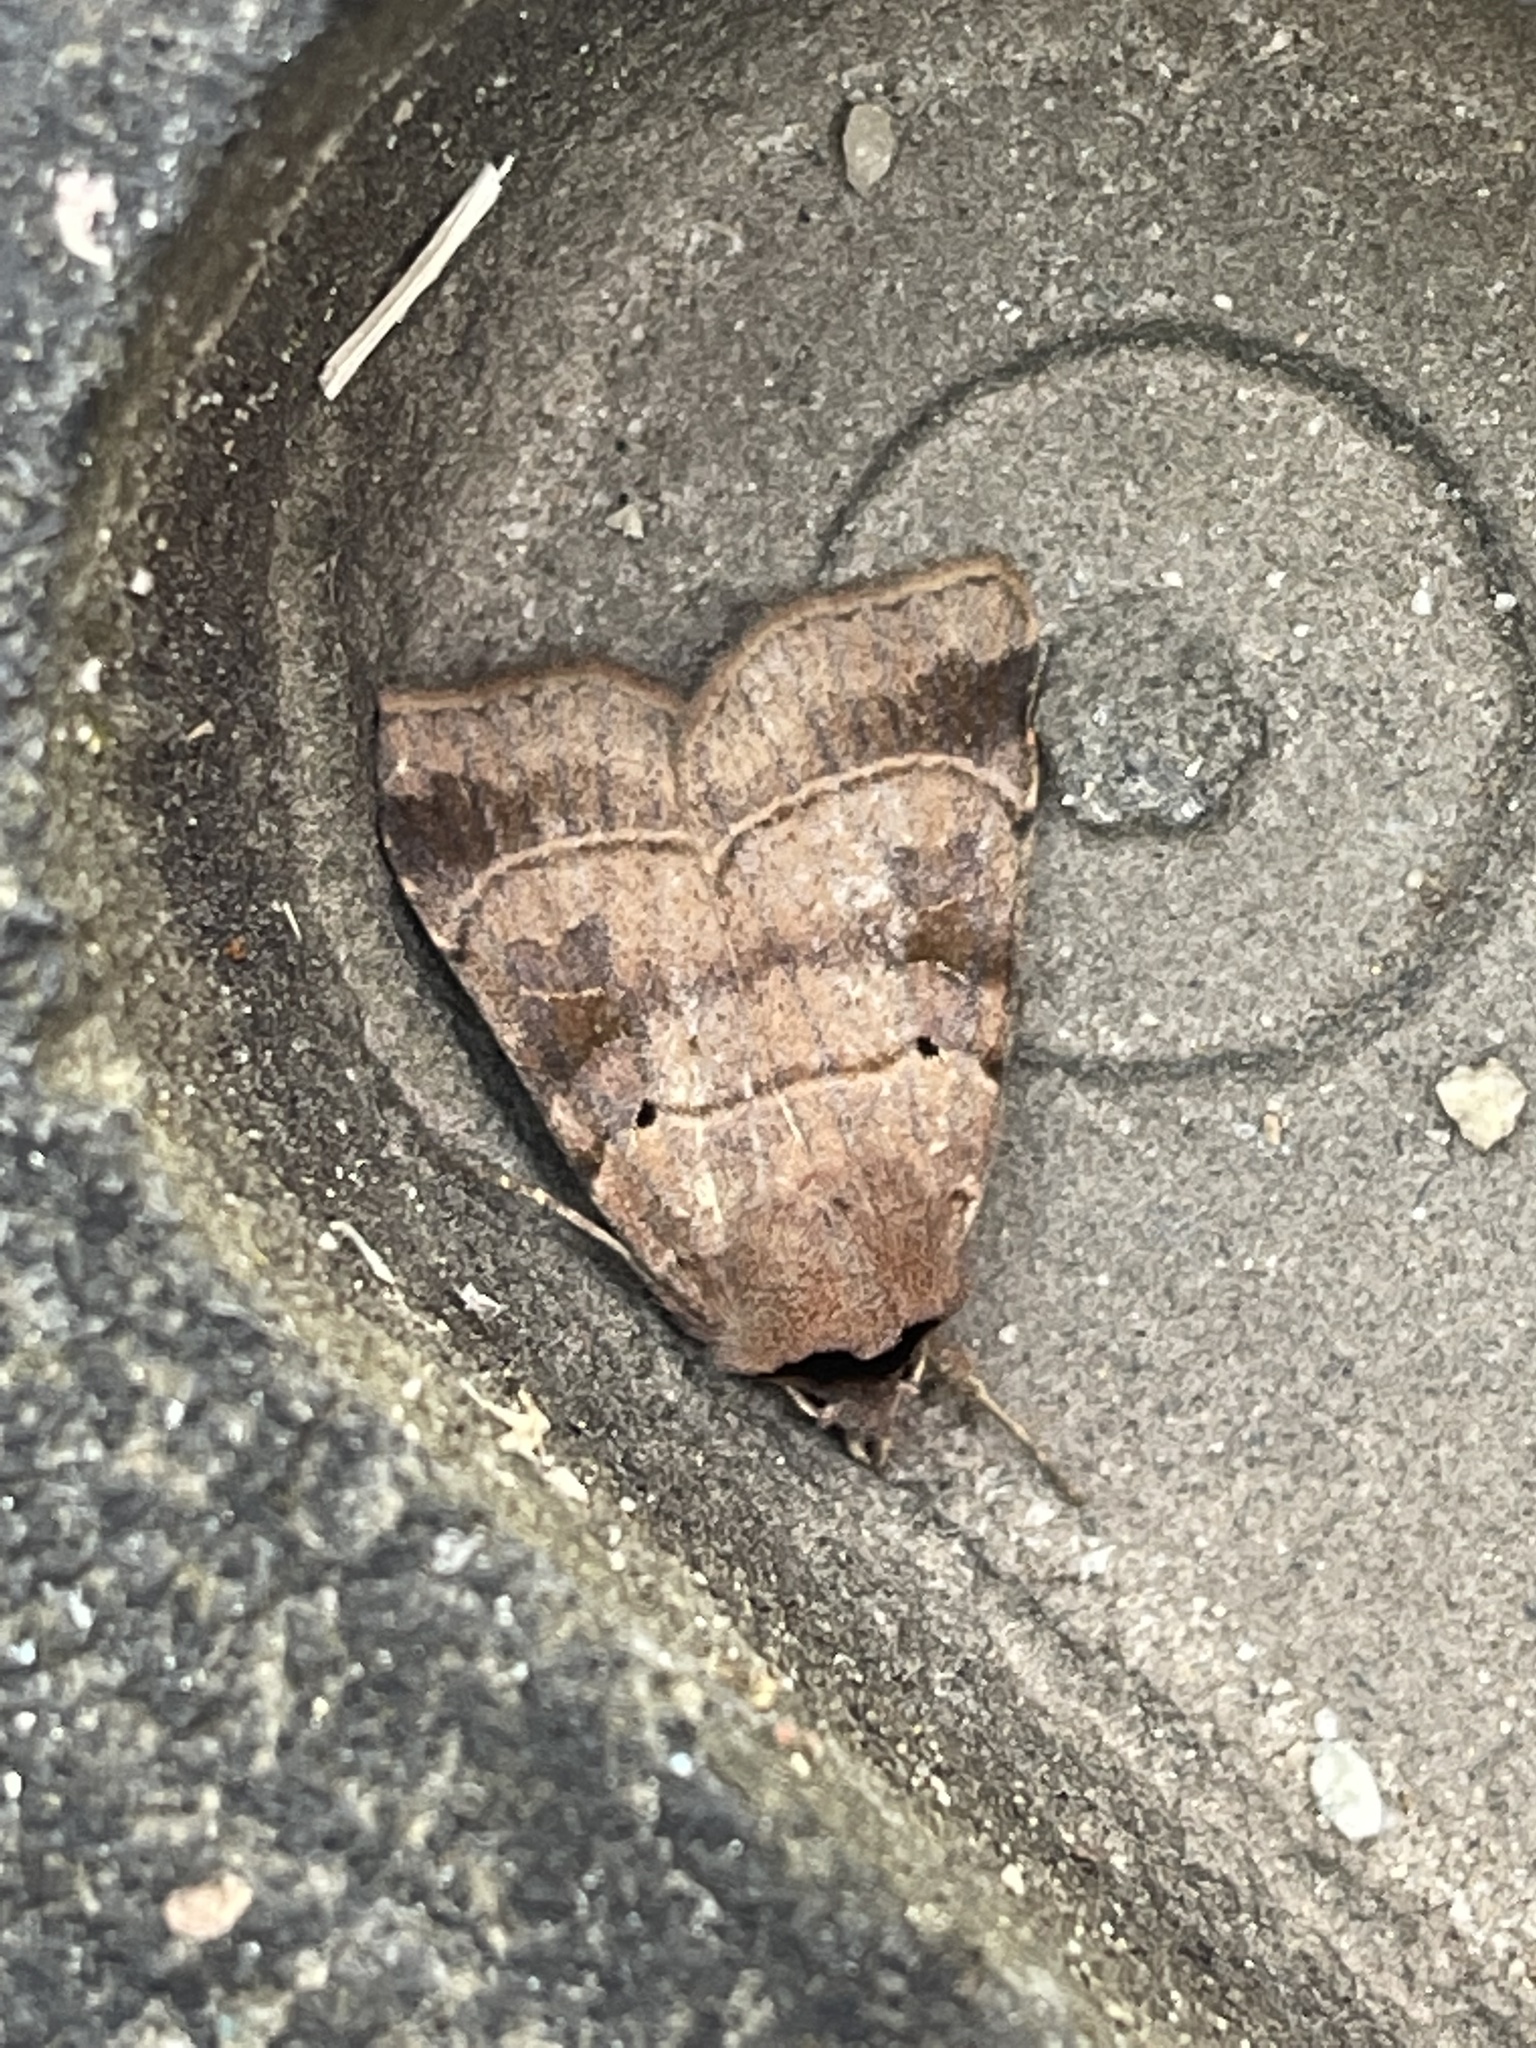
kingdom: Animalia
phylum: Arthropoda
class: Insecta
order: Lepidoptera
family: Noctuidae
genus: Agnorisma
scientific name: Agnorisma badinodis
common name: Pale-banded dart
